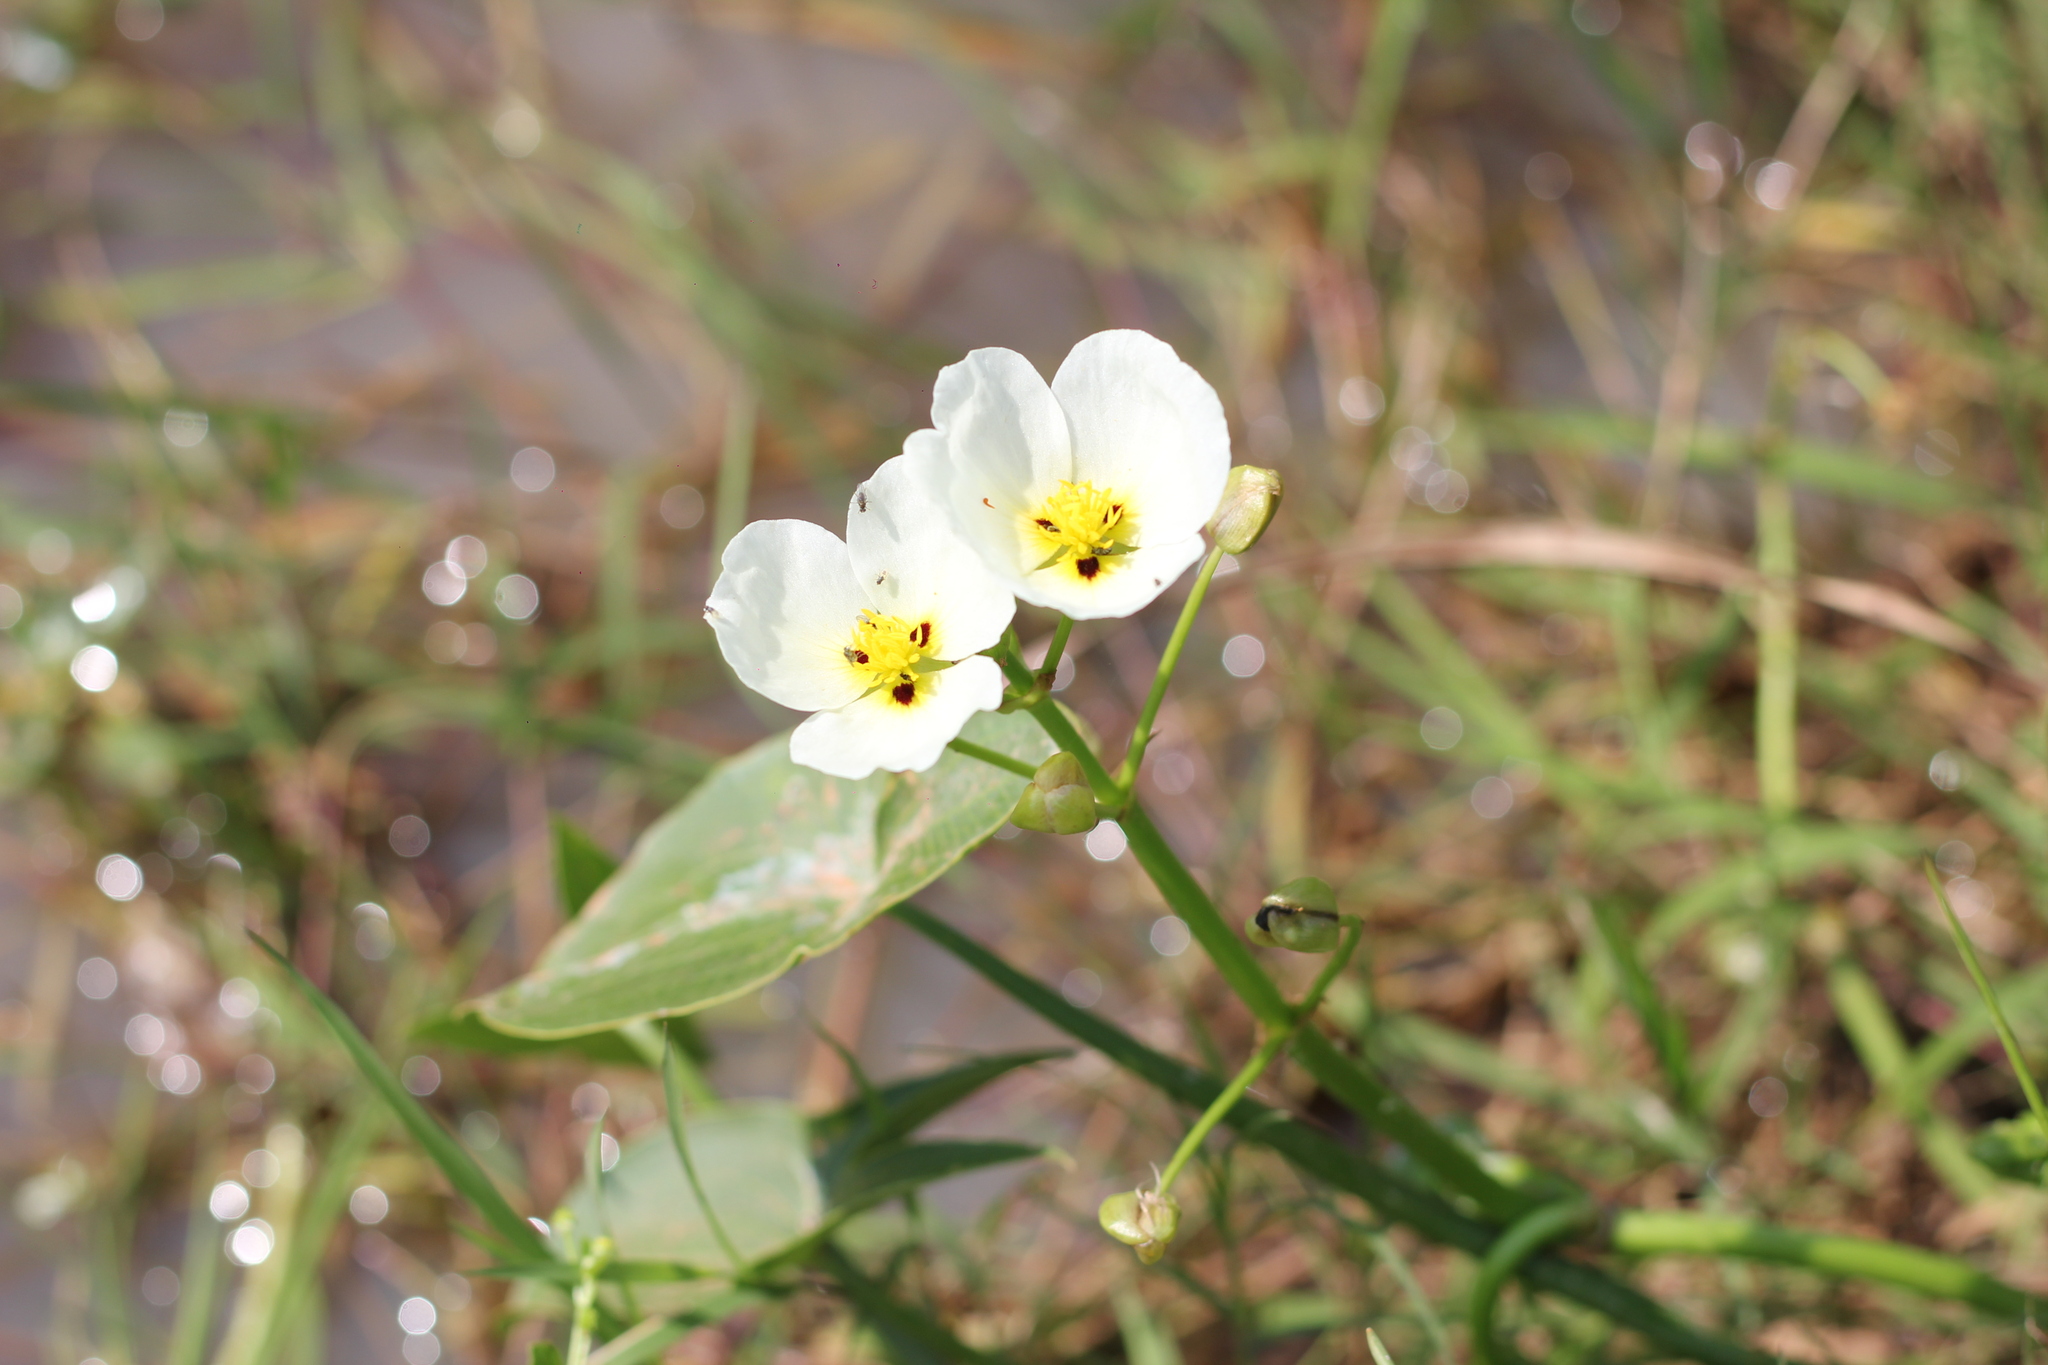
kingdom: Plantae
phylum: Tracheophyta
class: Liliopsida
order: Alismatales
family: Alismataceae
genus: Sagittaria
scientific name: Sagittaria montevidensis
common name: Giant arrowhead
